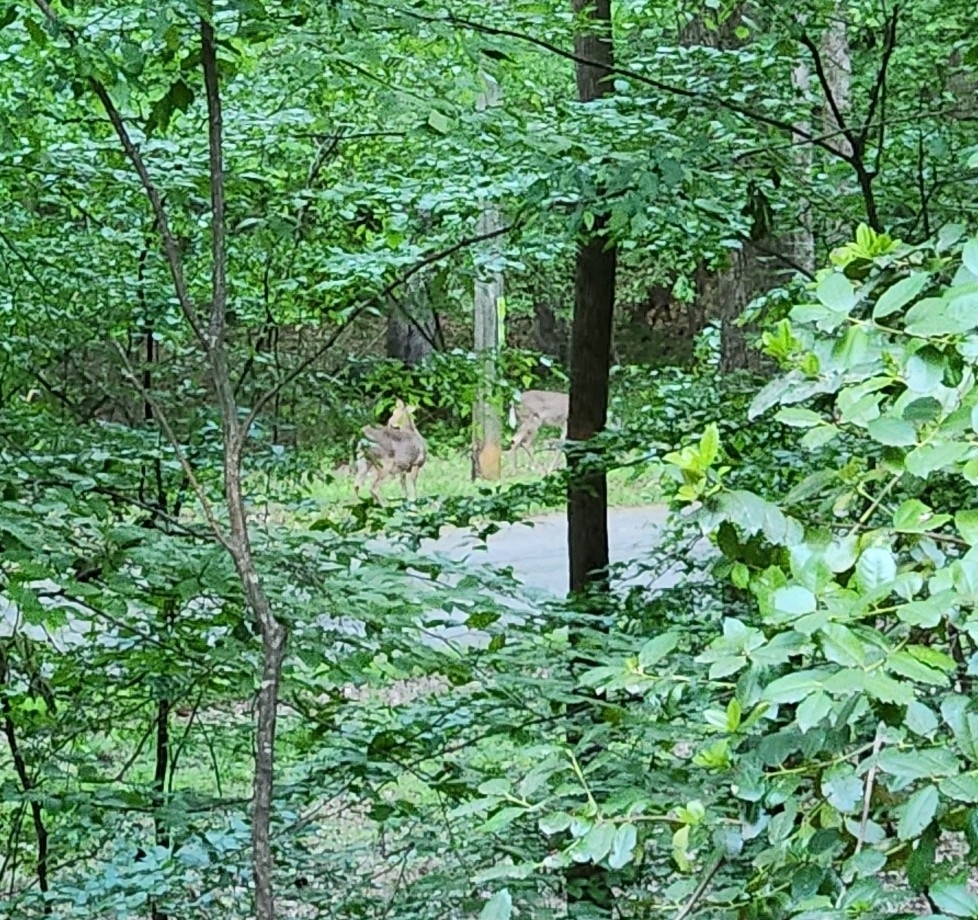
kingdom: Animalia
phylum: Chordata
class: Mammalia
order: Artiodactyla
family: Cervidae
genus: Odocoileus
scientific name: Odocoileus virginianus
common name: White-tailed deer
